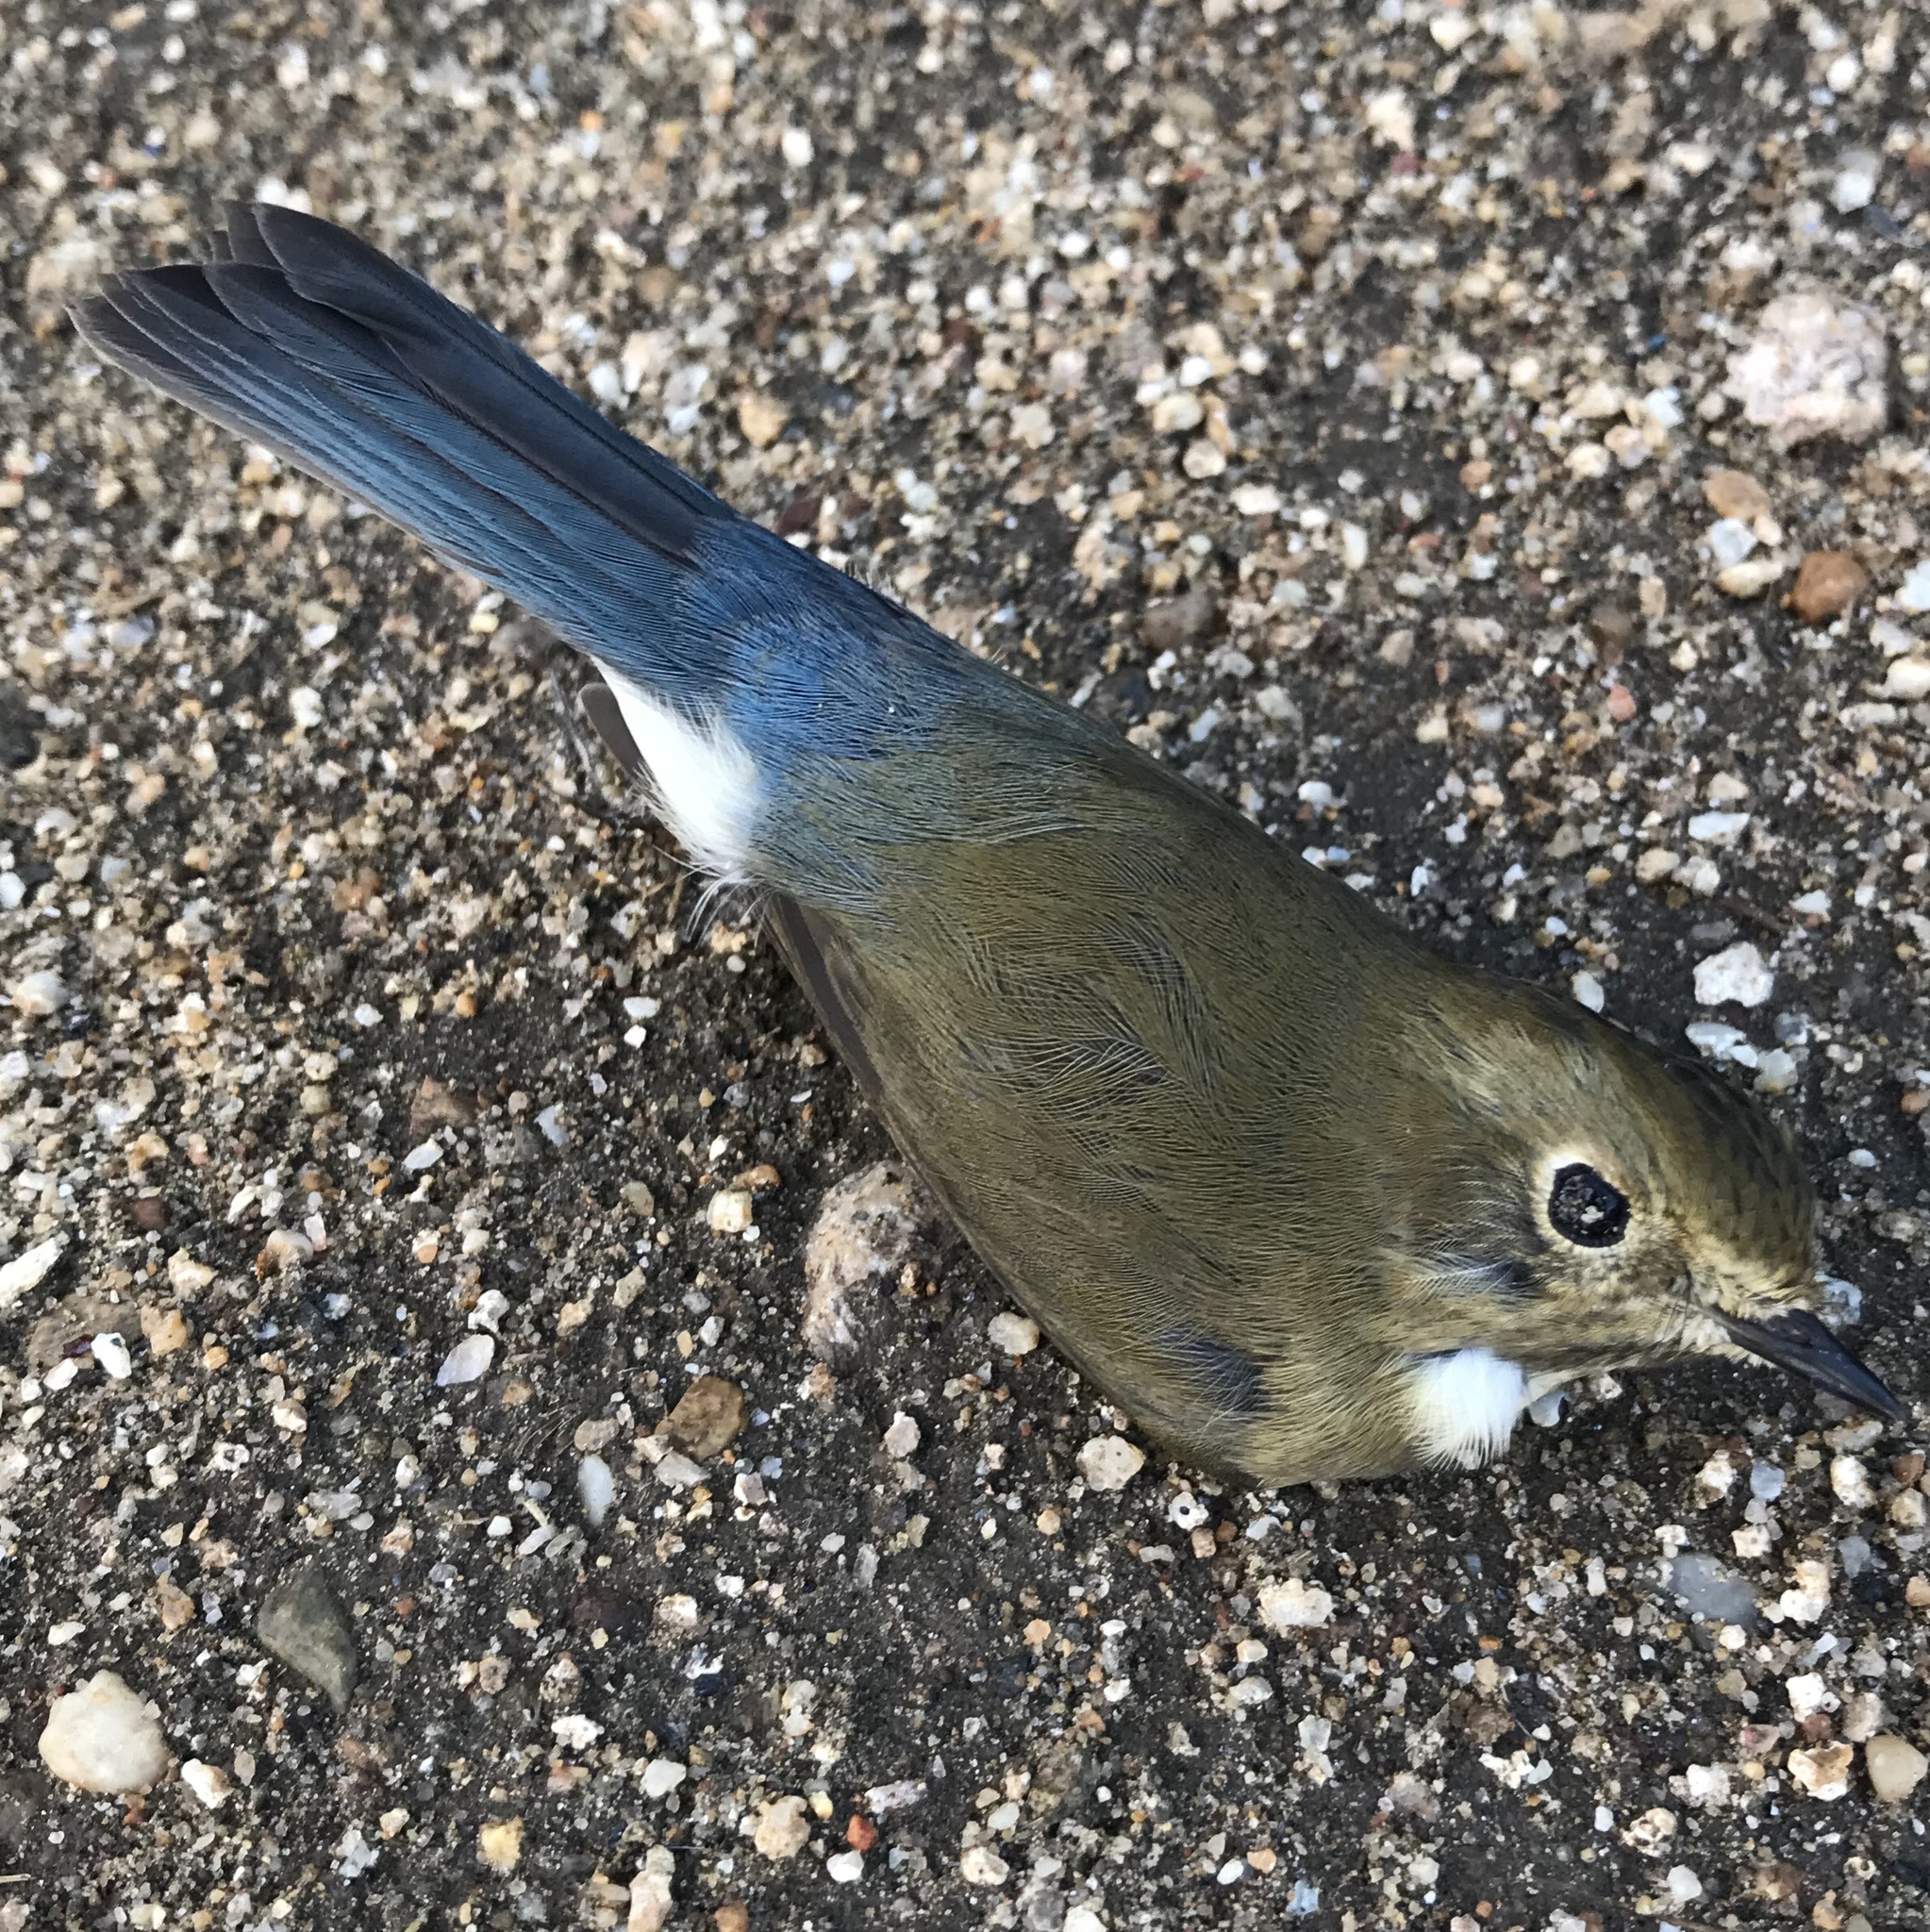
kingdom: Animalia
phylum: Chordata
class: Aves
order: Passeriformes
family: Muscicapidae
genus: Tarsiger
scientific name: Tarsiger cyanurus
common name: Red-flanked bluetail
